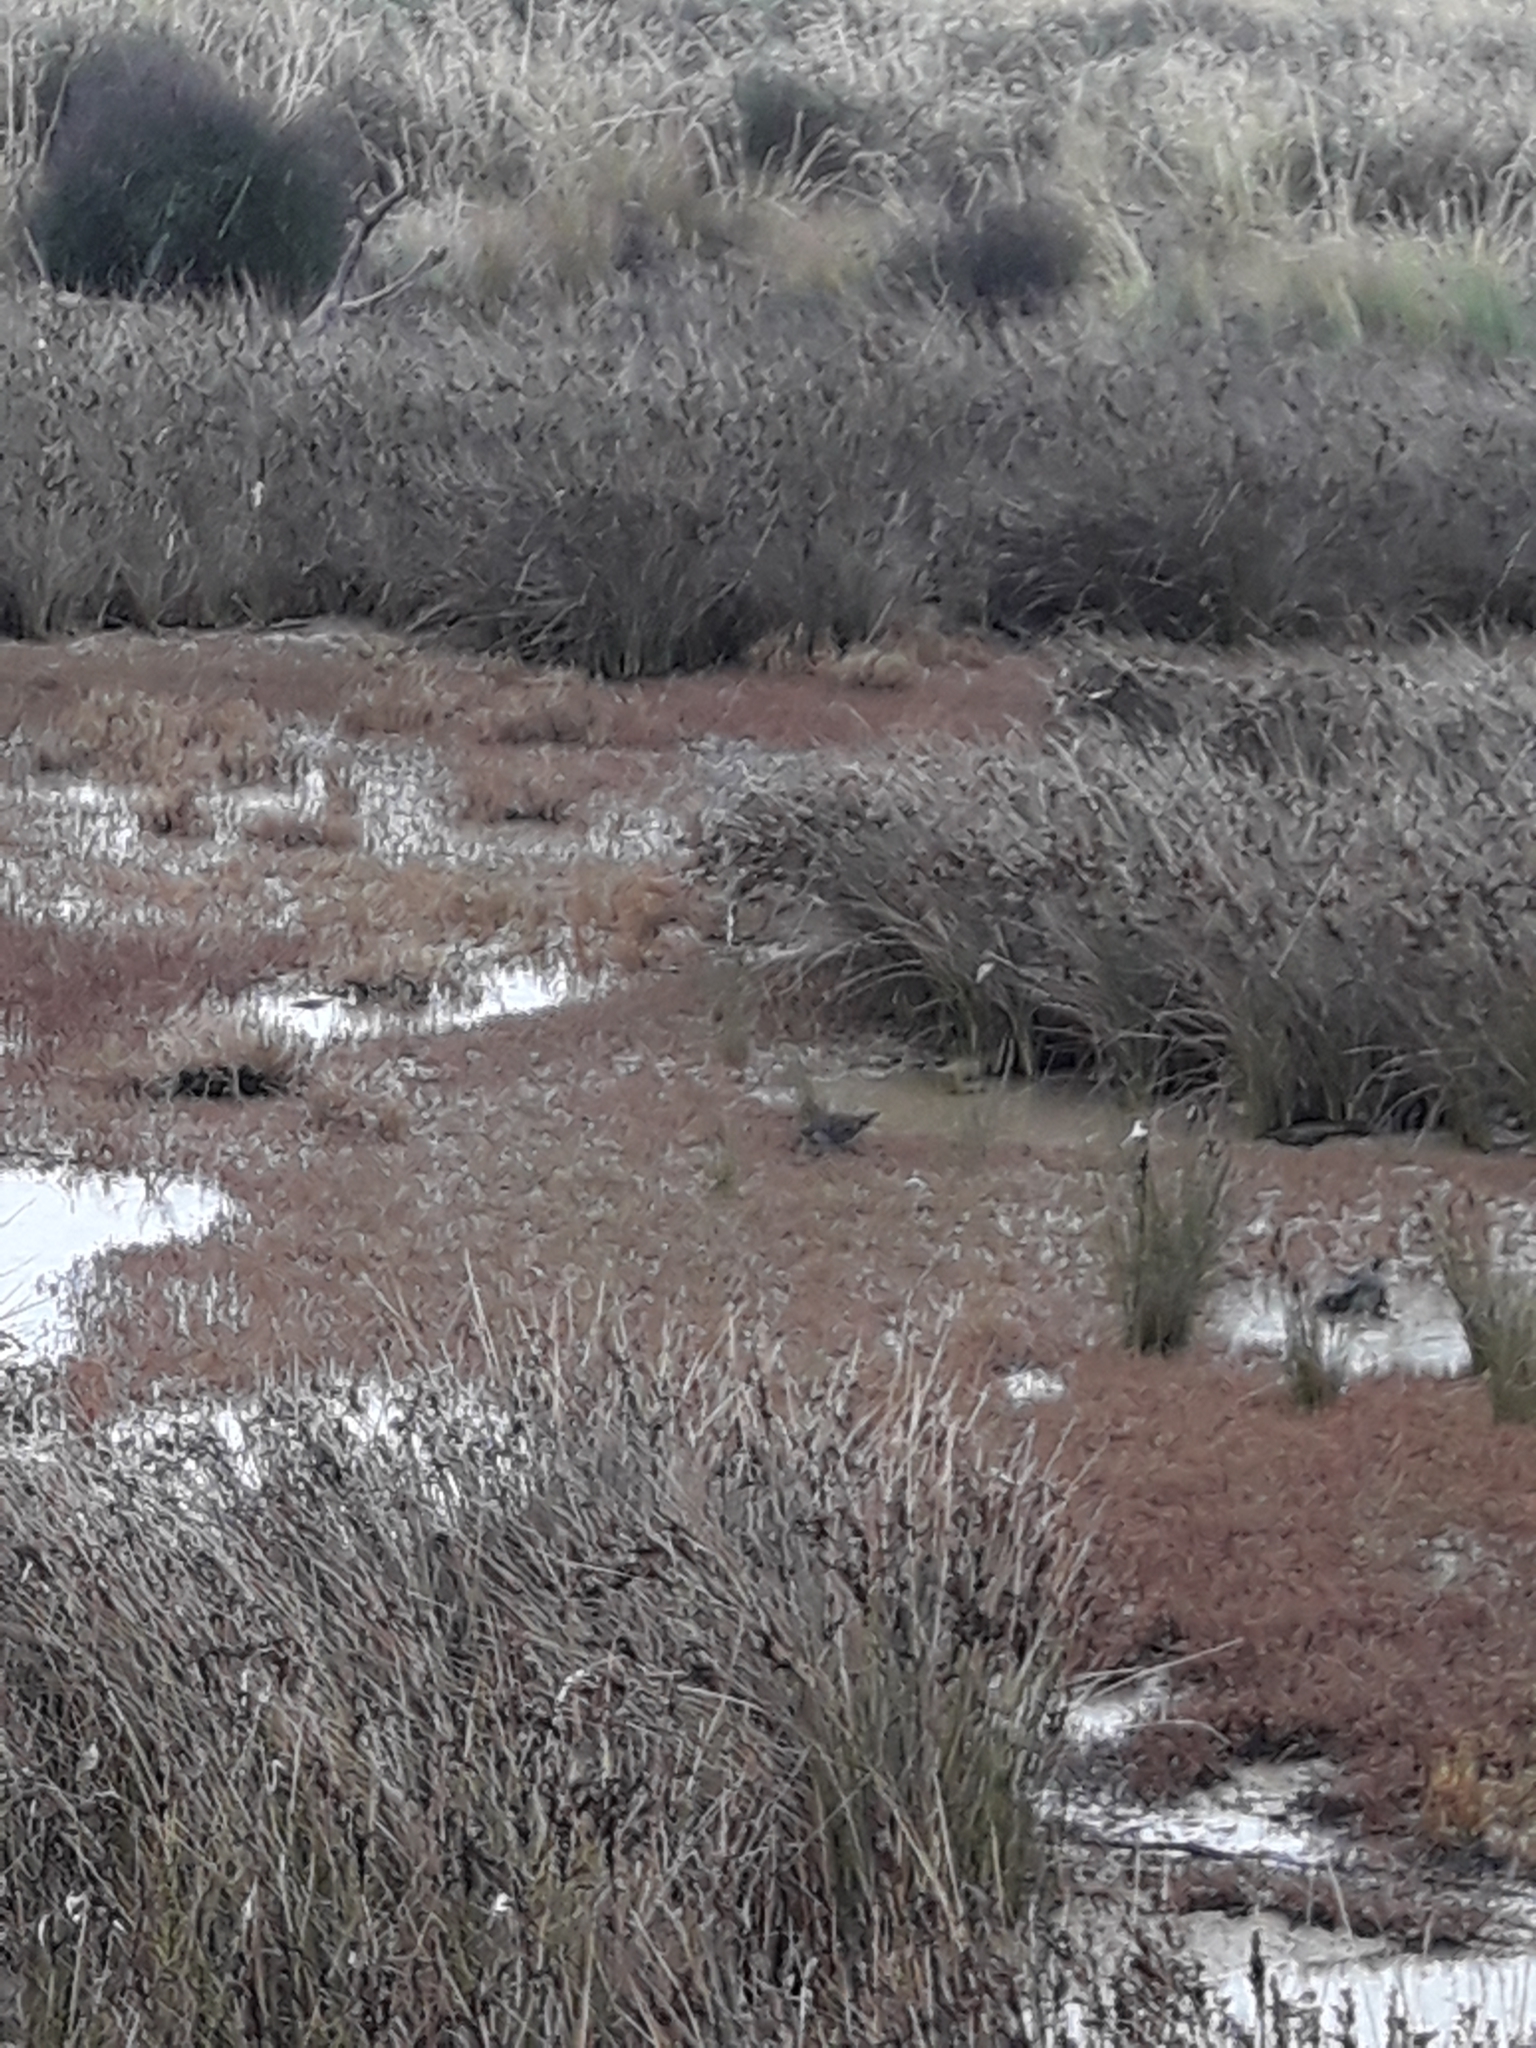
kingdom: Animalia
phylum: Chordata
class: Aves
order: Gruiformes
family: Rallidae
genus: Gallirallus
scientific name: Gallirallus philippensis
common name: Buff-banded rail
